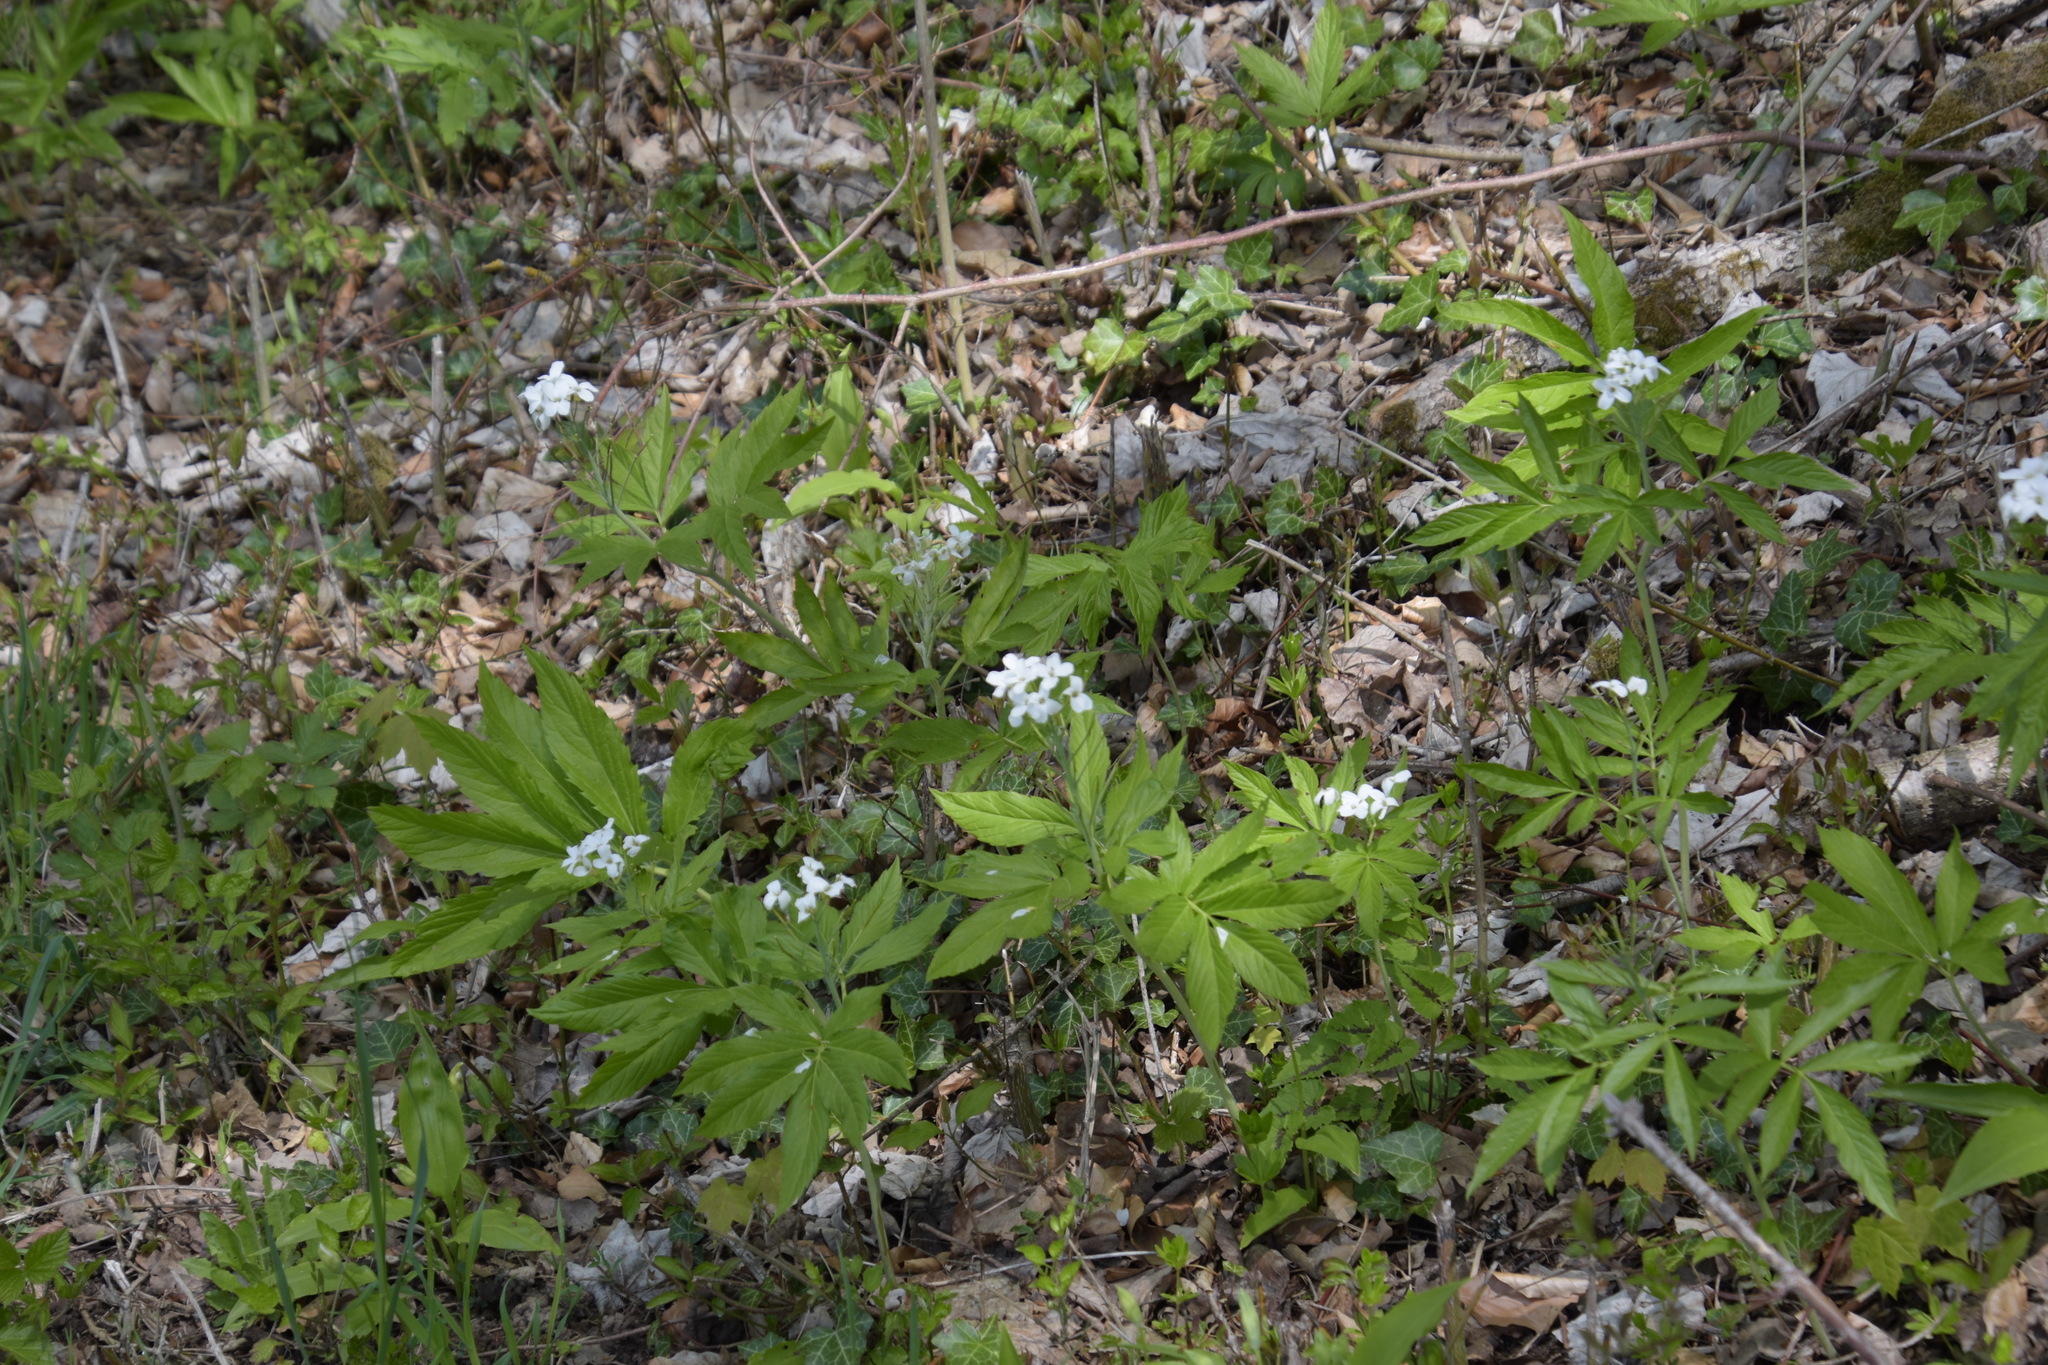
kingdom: Plantae
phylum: Tracheophyta
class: Magnoliopsida
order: Brassicales
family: Brassicaceae
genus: Cardamine
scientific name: Cardamine heptaphylla
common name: Pinnate coralroot
